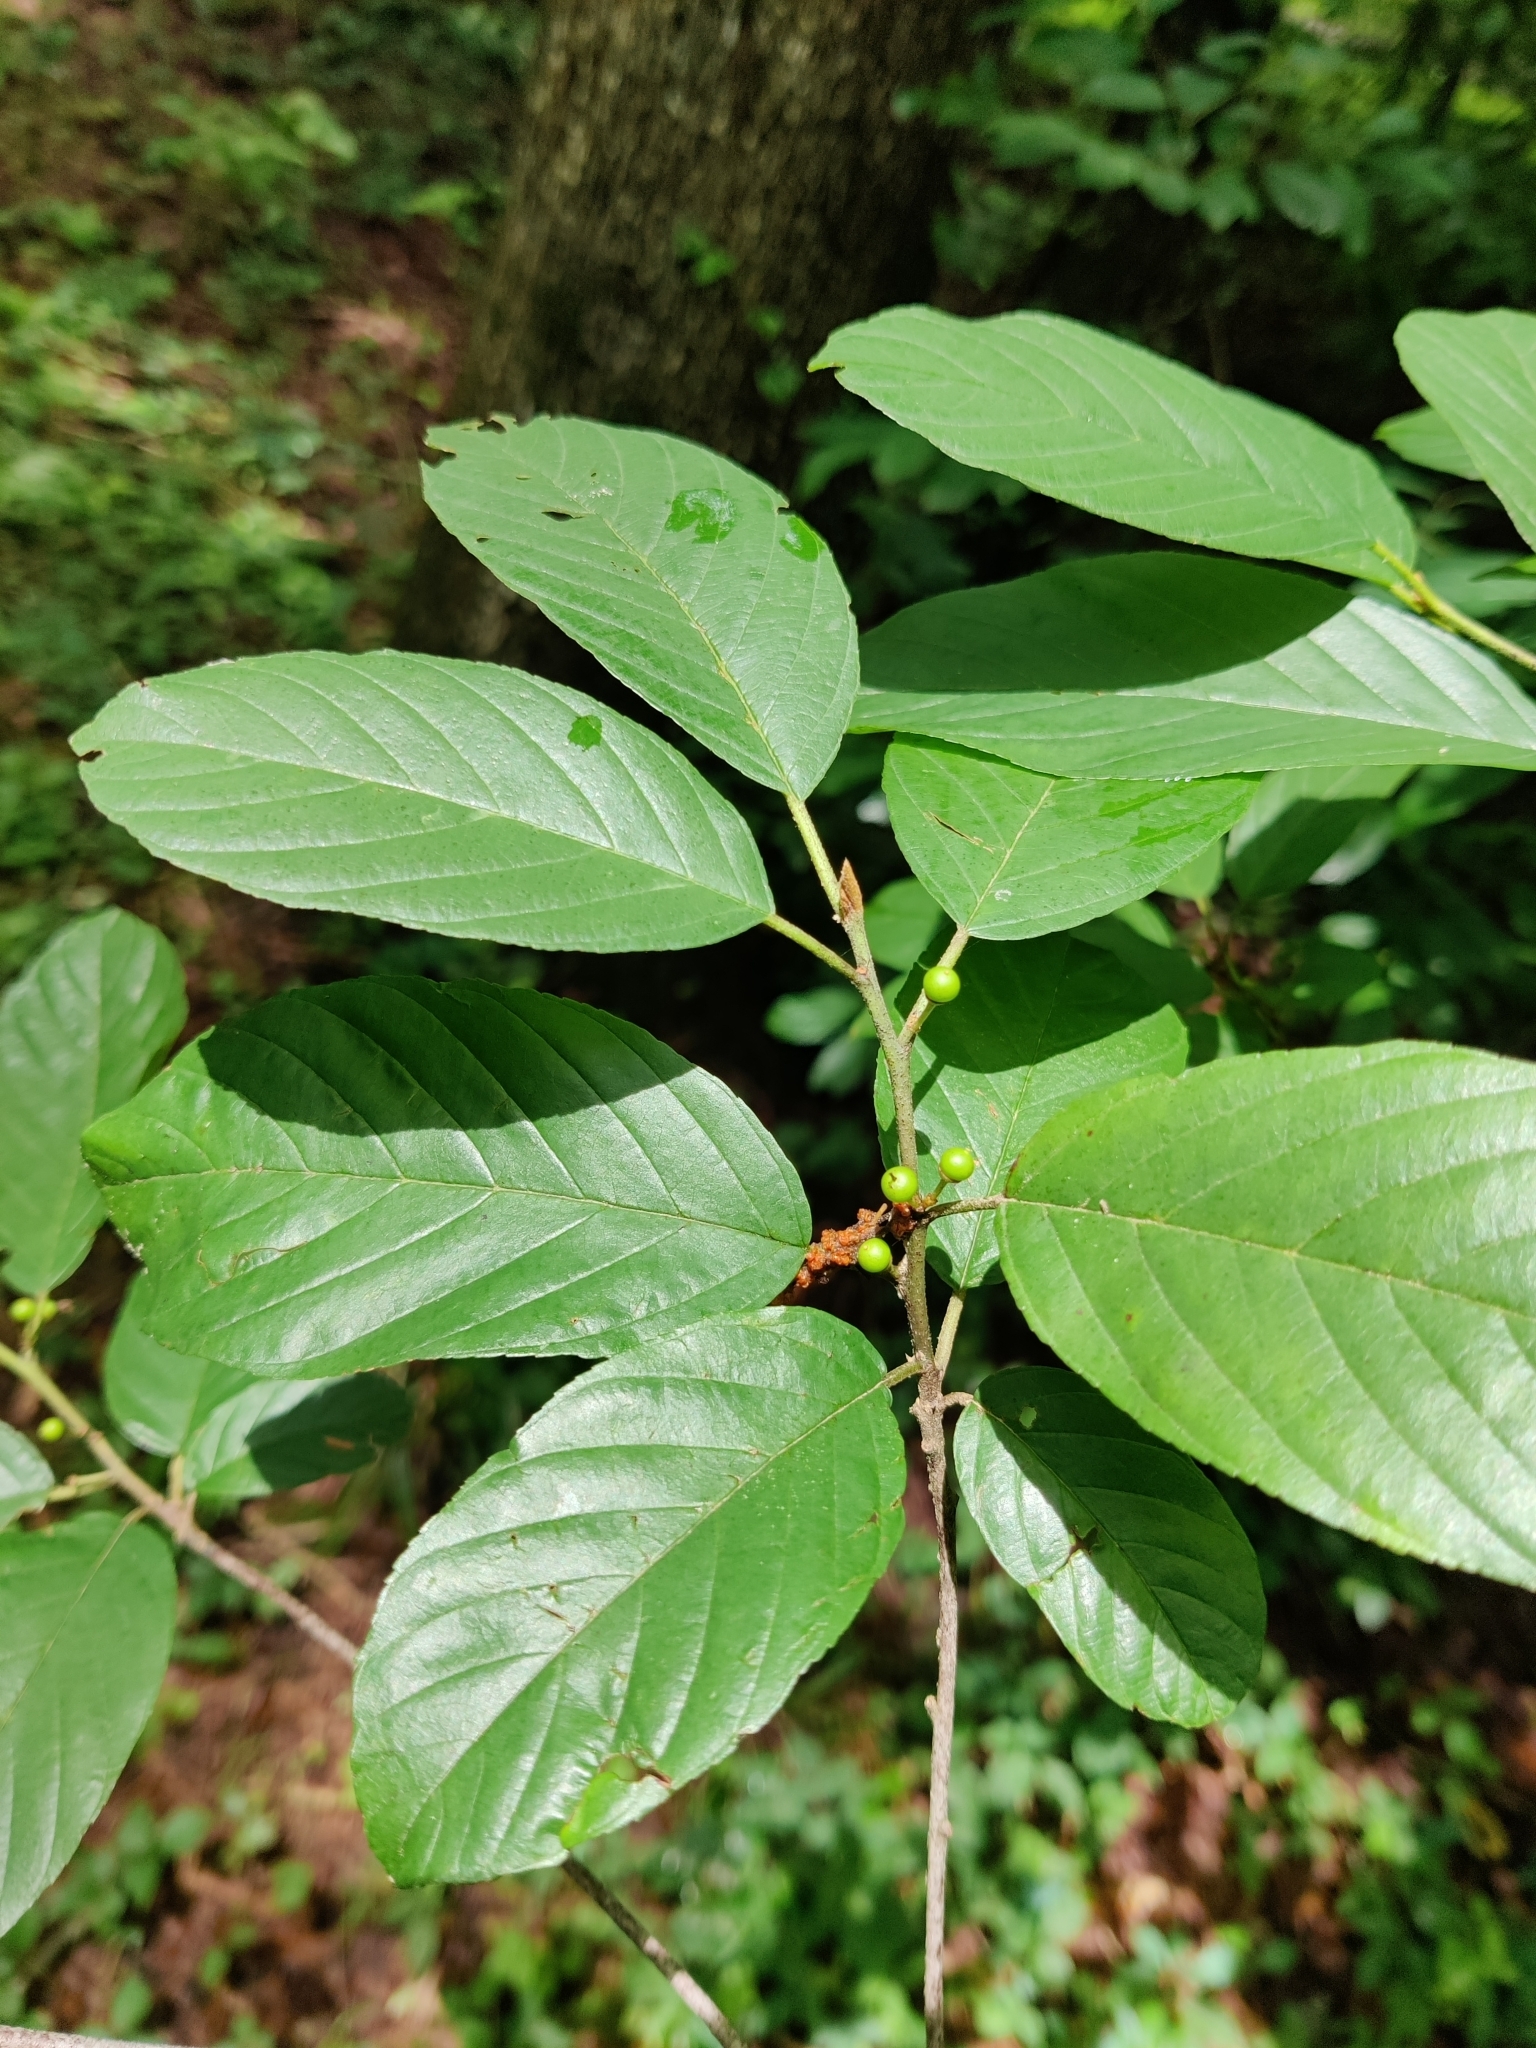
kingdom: Plantae
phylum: Tracheophyta
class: Magnoliopsida
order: Rosales
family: Rhamnaceae
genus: Frangula
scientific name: Frangula caroliniana
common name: Carolina buckthorn
